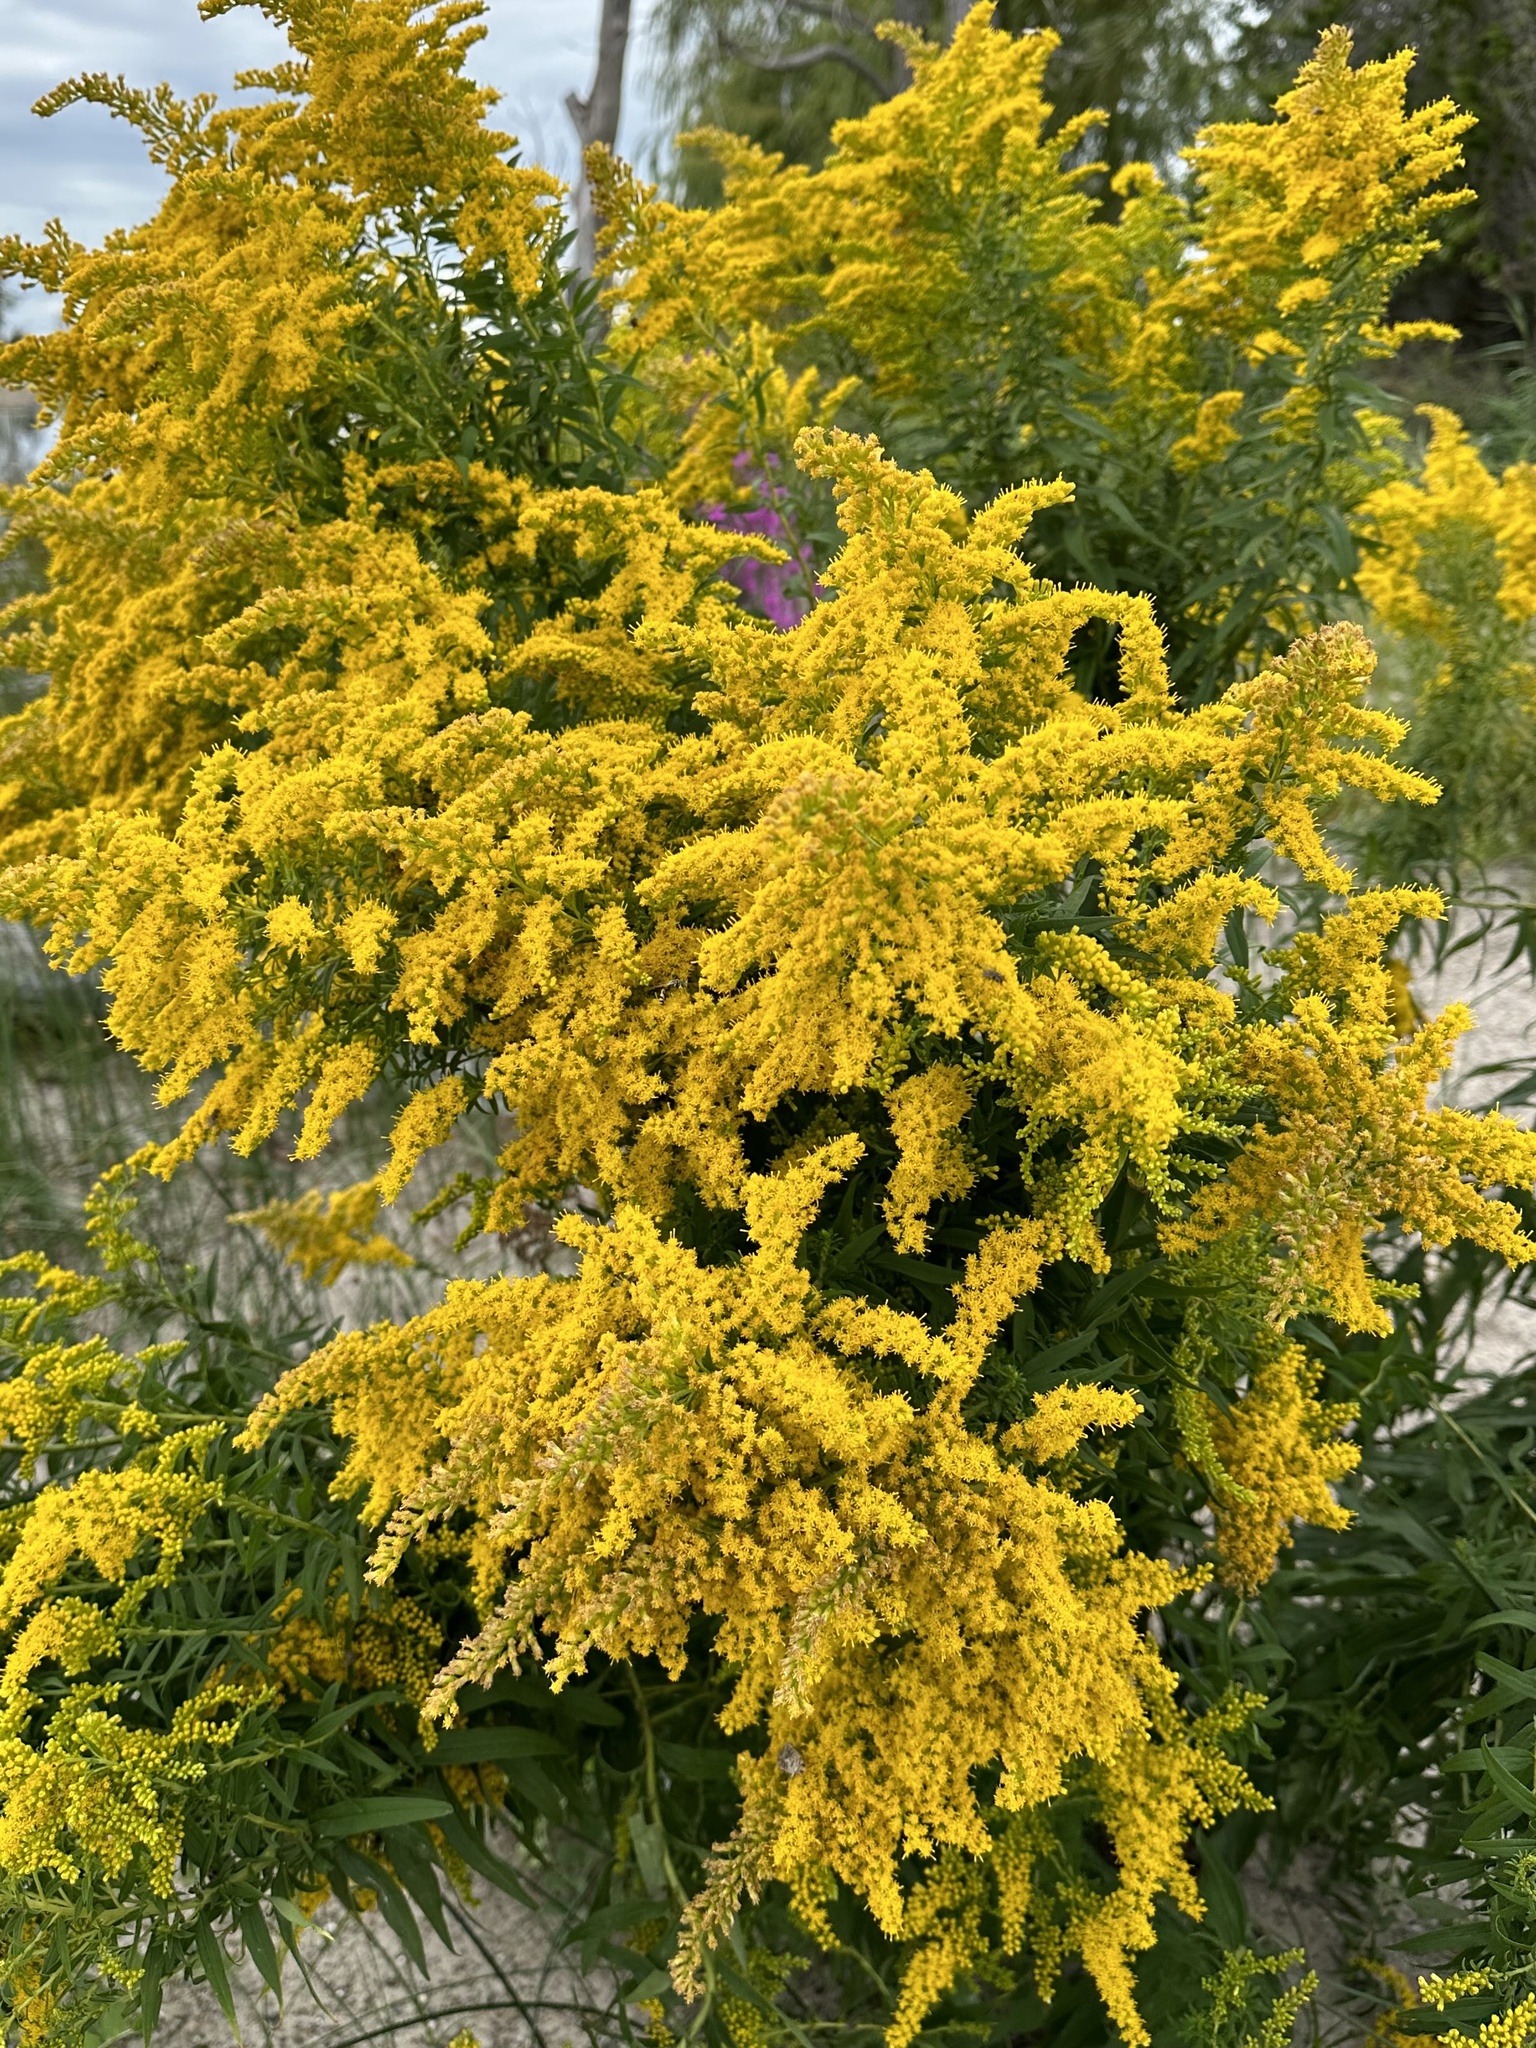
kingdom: Plantae
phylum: Tracheophyta
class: Magnoliopsida
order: Asterales
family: Asteraceae
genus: Solidago
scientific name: Solidago altissima
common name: Late goldenrod
